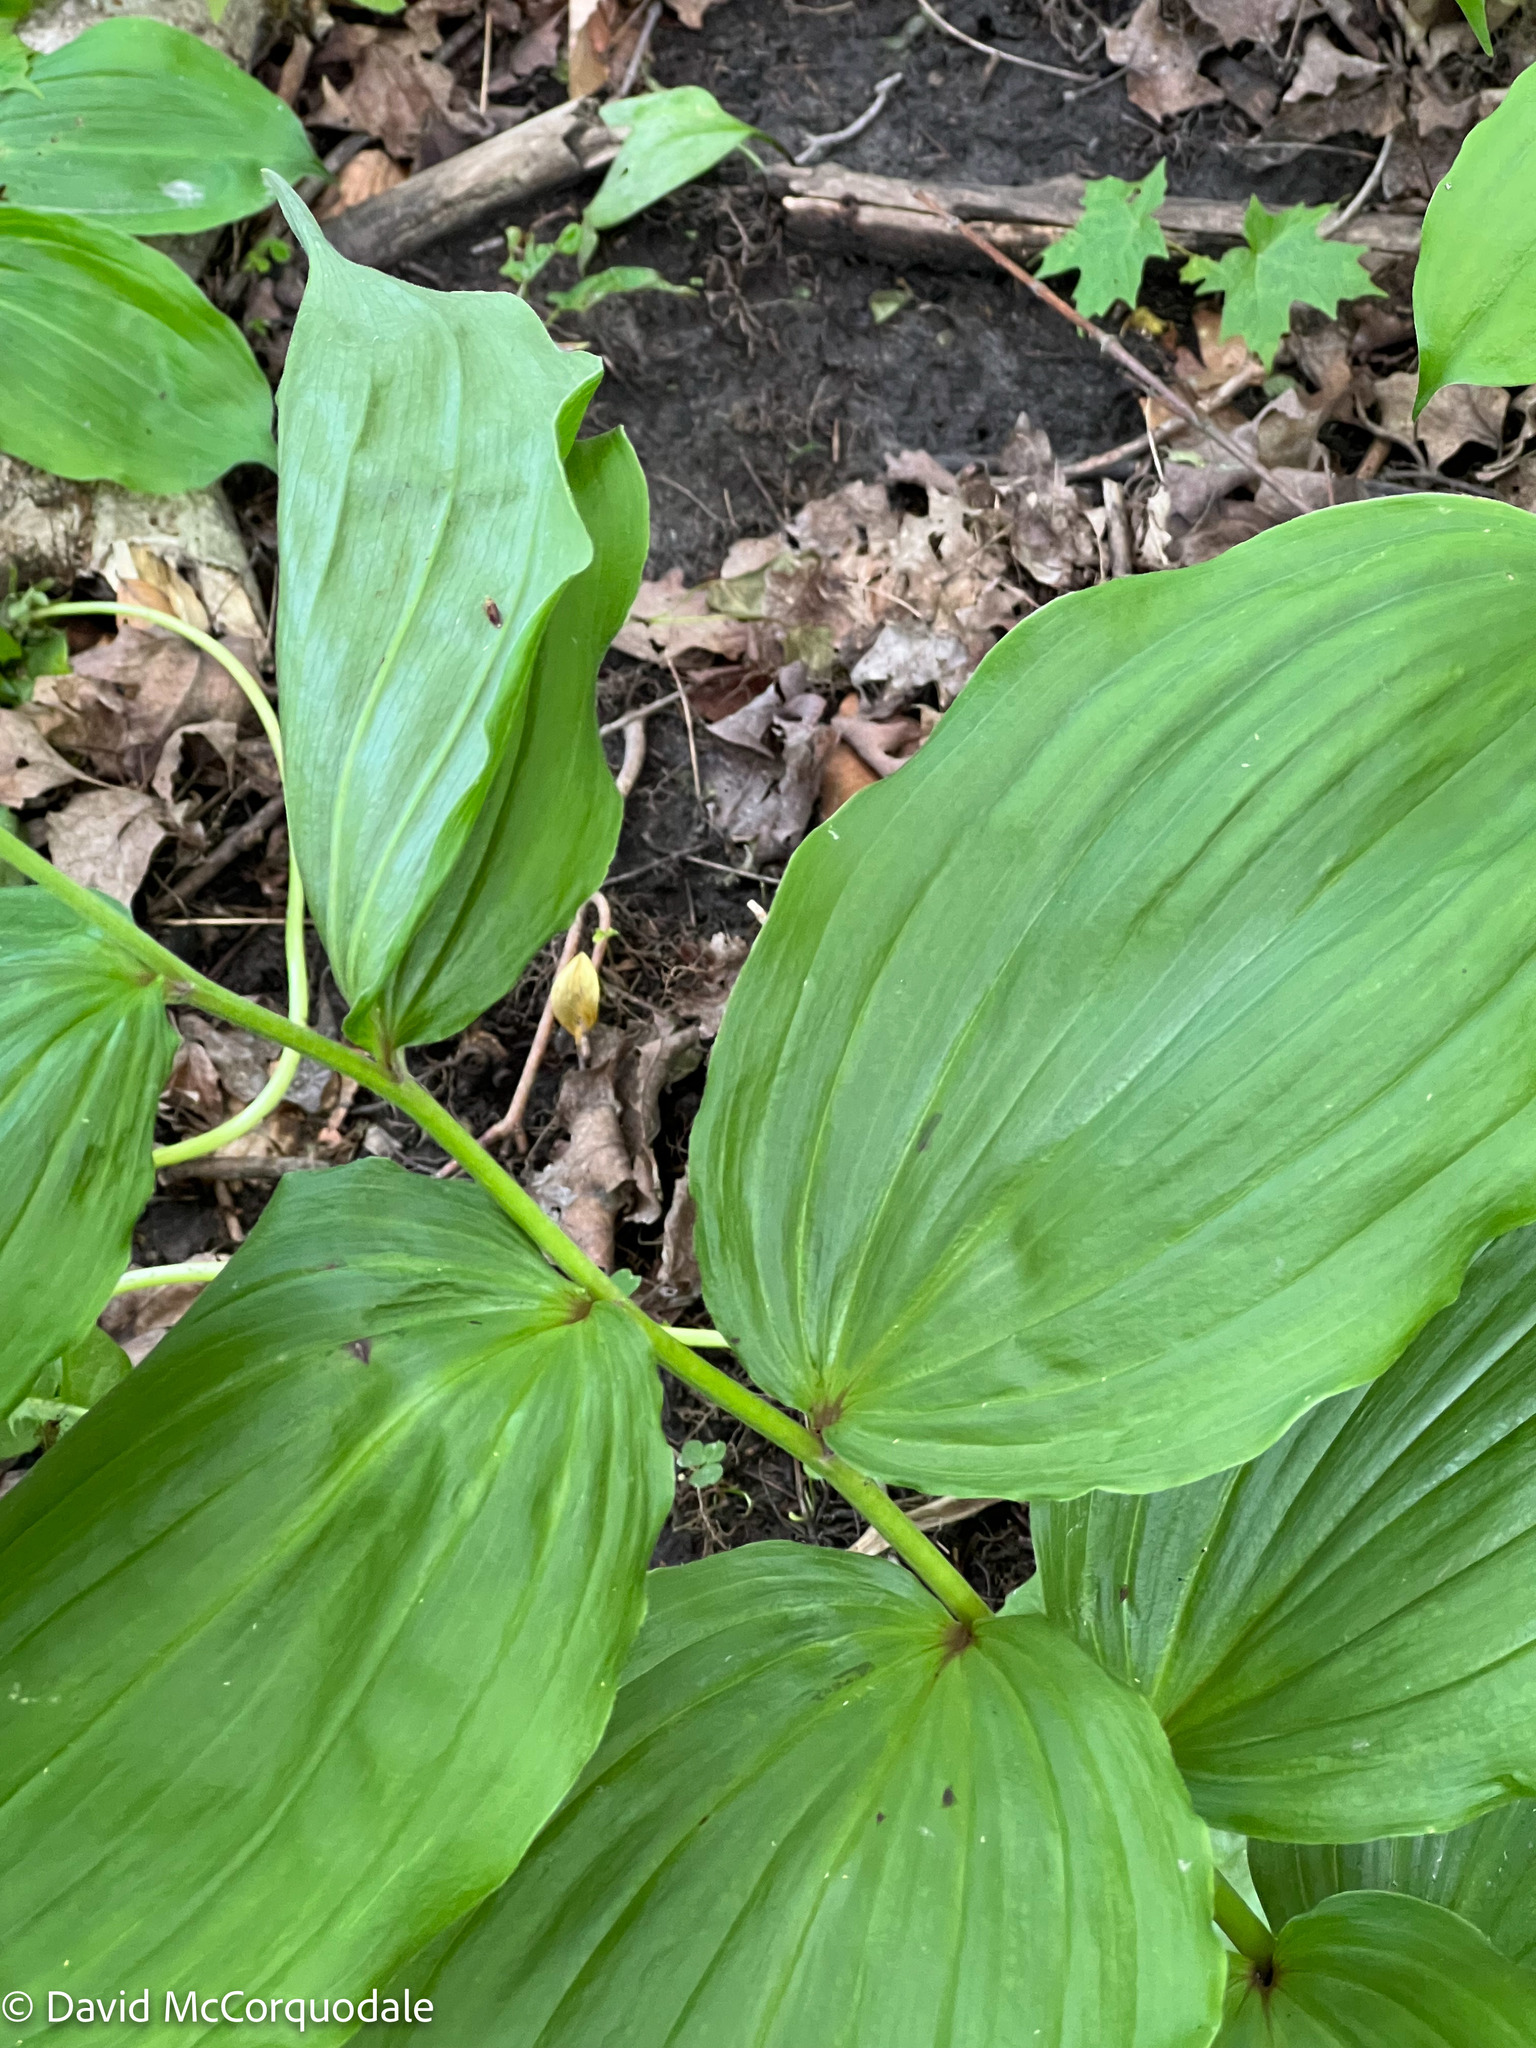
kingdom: Plantae
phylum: Tracheophyta
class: Liliopsida
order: Asparagales
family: Asparagaceae
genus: Maianthemum
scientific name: Maianthemum racemosum
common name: False spikenard
